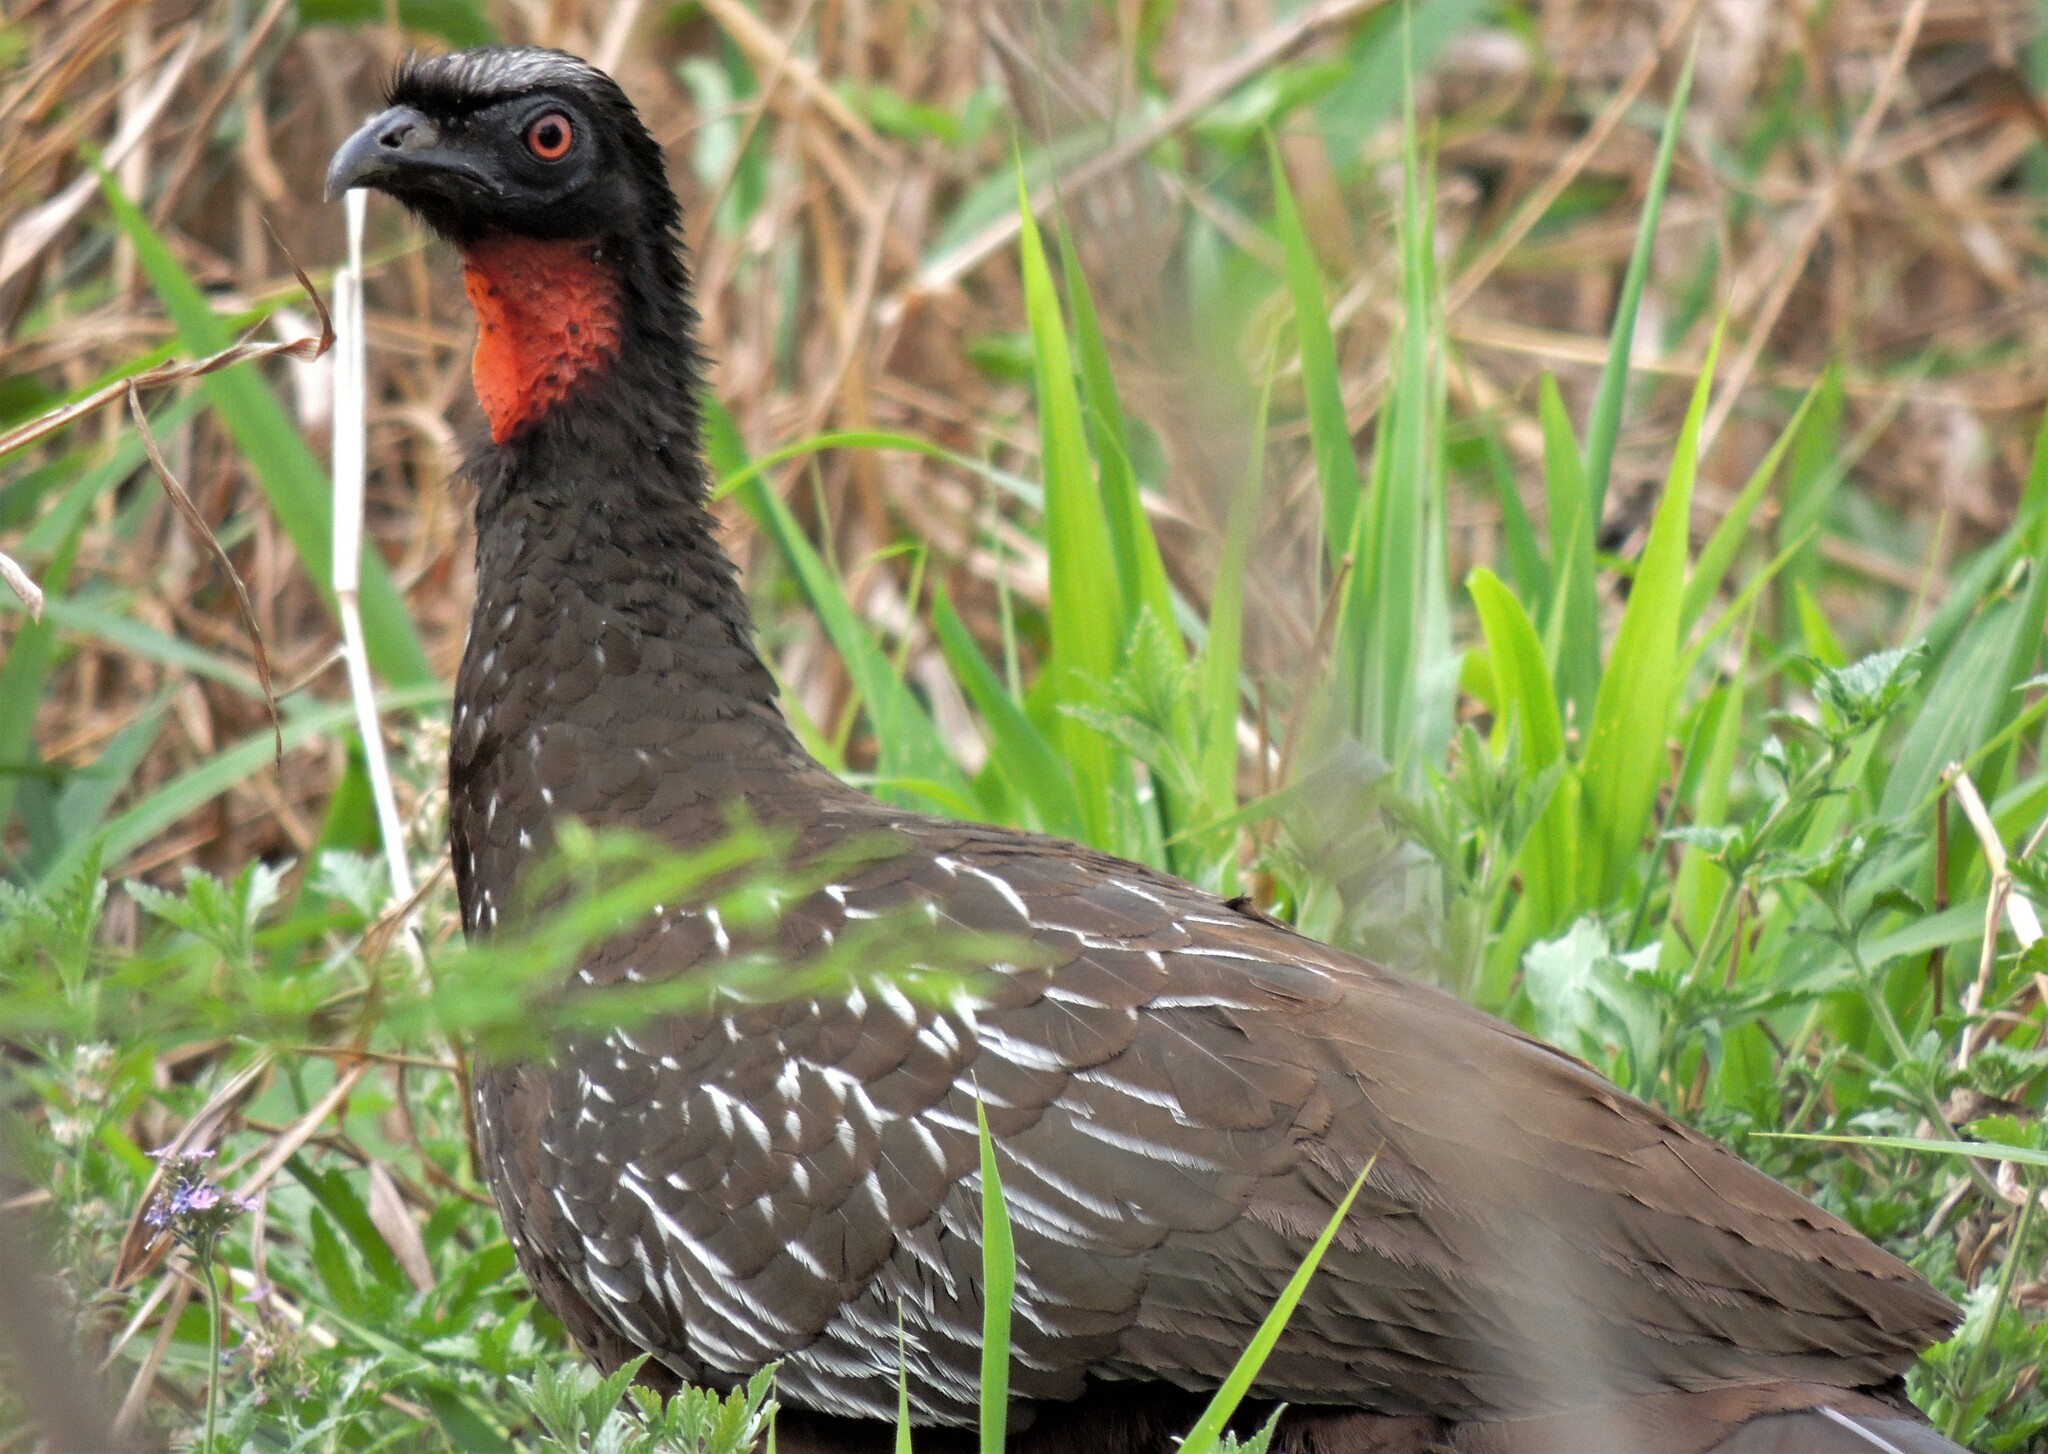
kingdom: Animalia
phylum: Chordata
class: Aves
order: Galliformes
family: Cracidae
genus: Penelope
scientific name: Penelope bridgesi
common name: Yungas guan
